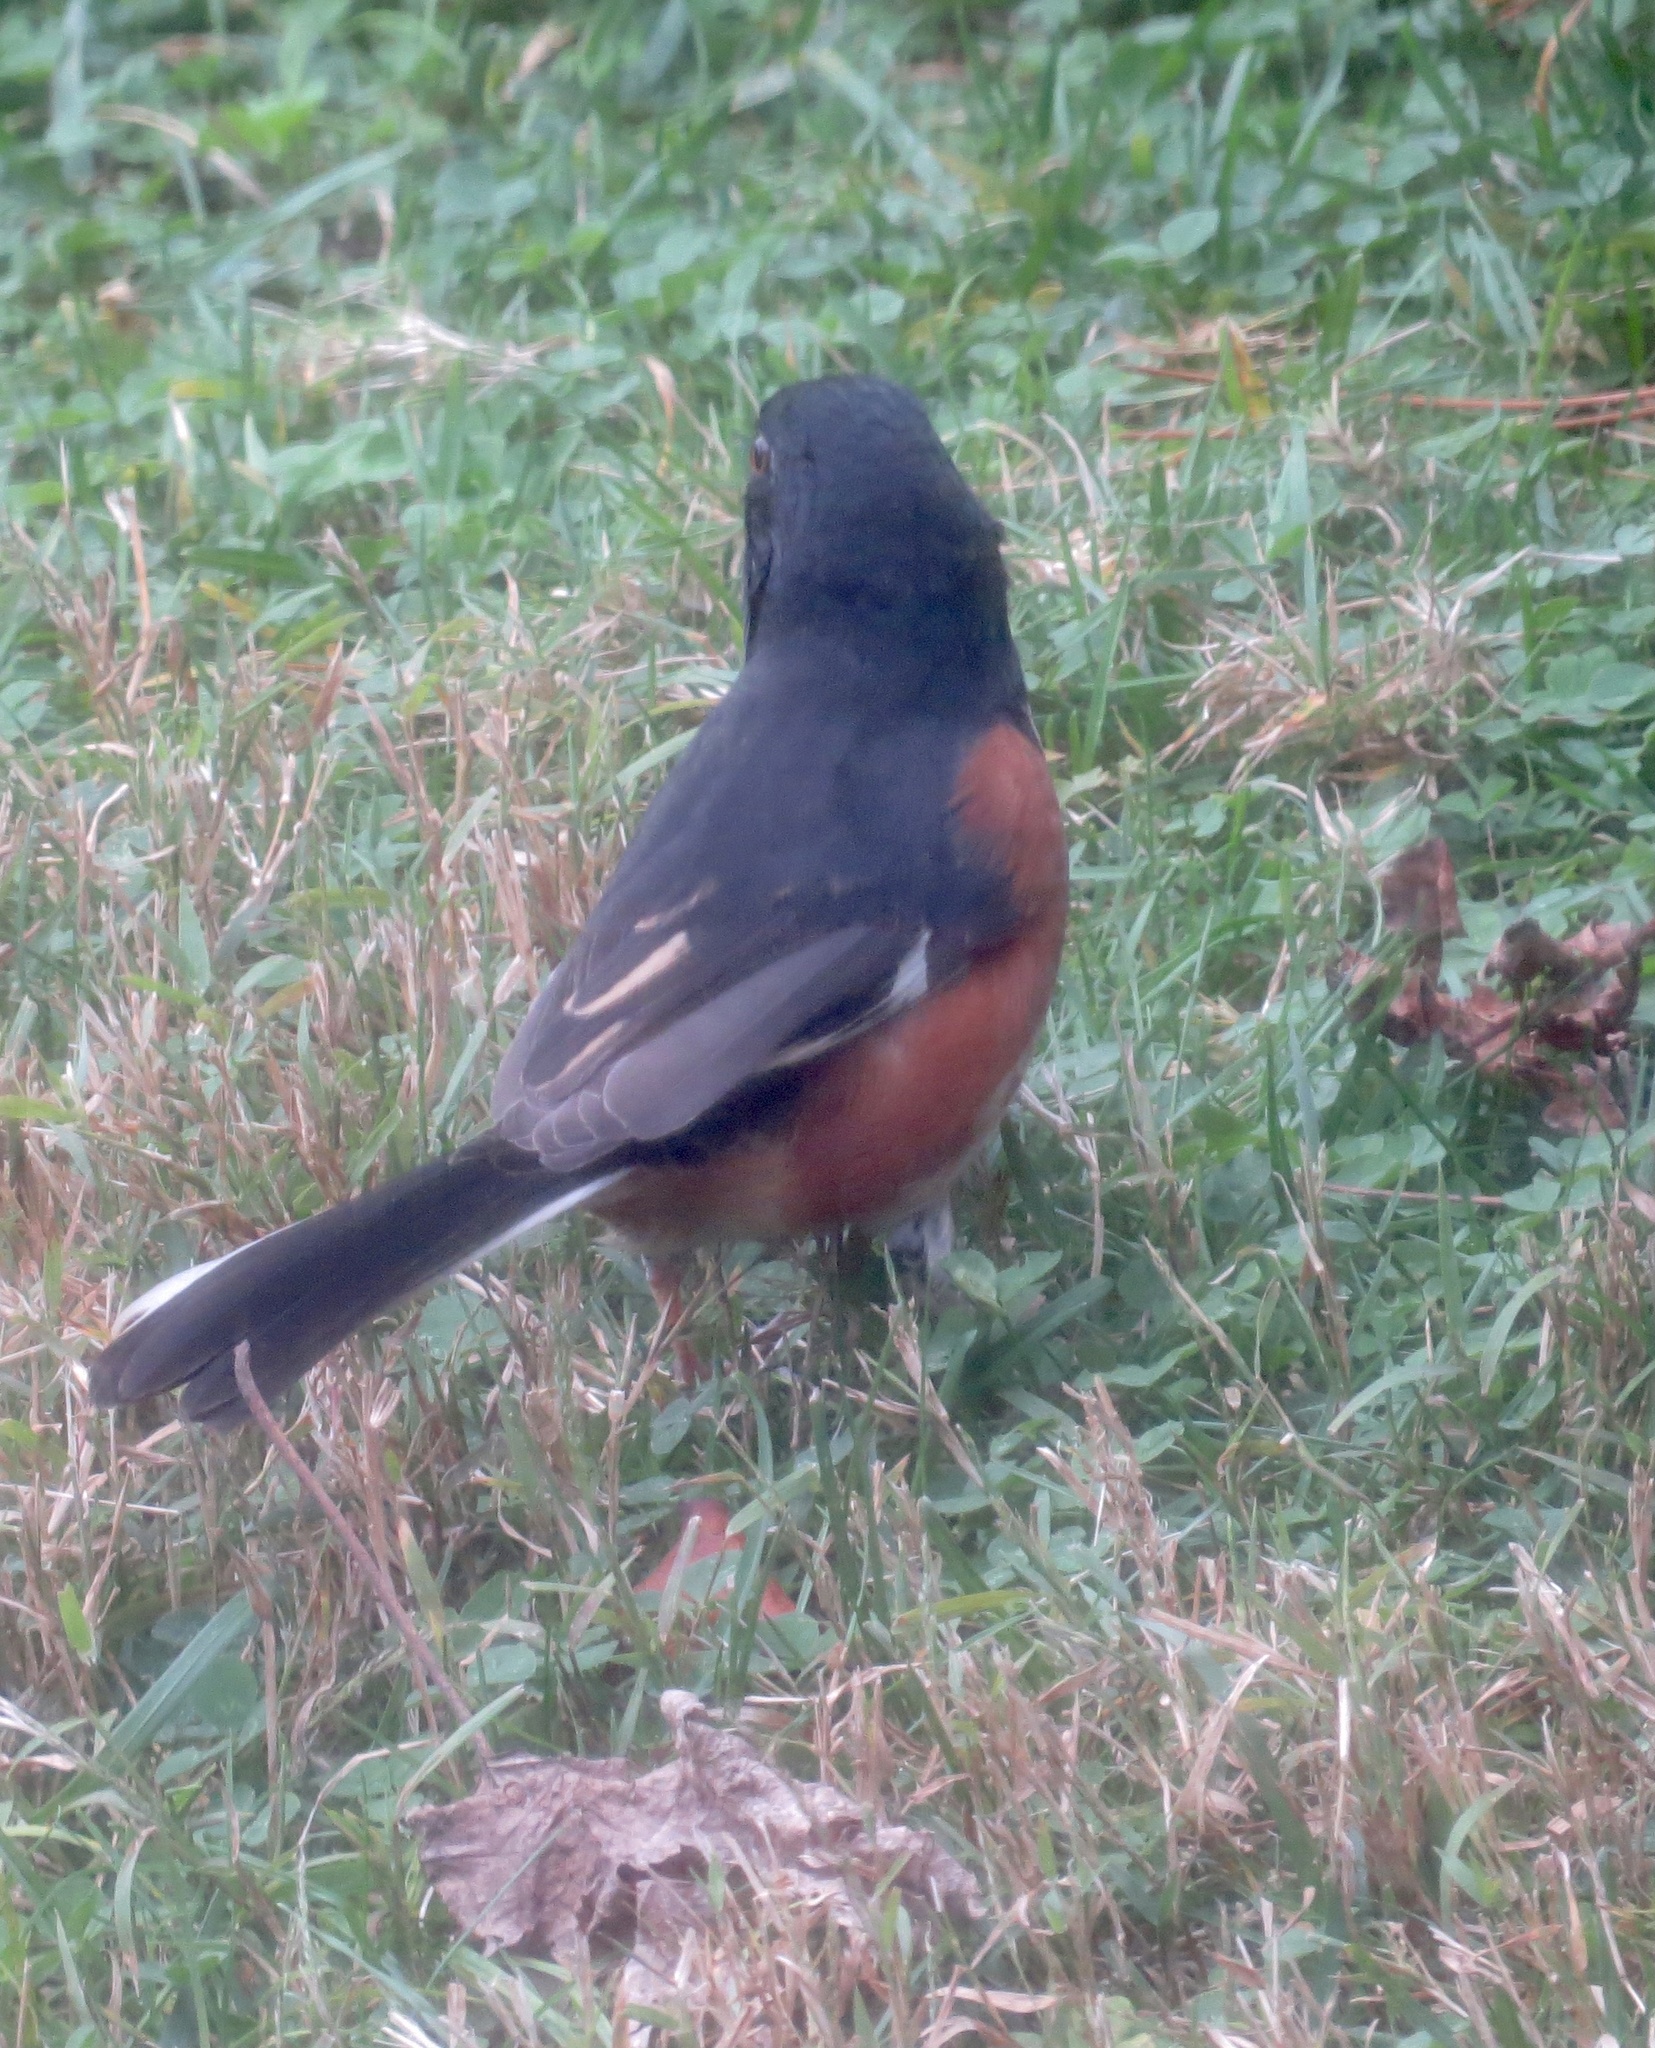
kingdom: Animalia
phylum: Chordata
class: Aves
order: Passeriformes
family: Passerellidae
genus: Pipilo
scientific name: Pipilo erythrophthalmus
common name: Eastern towhee
